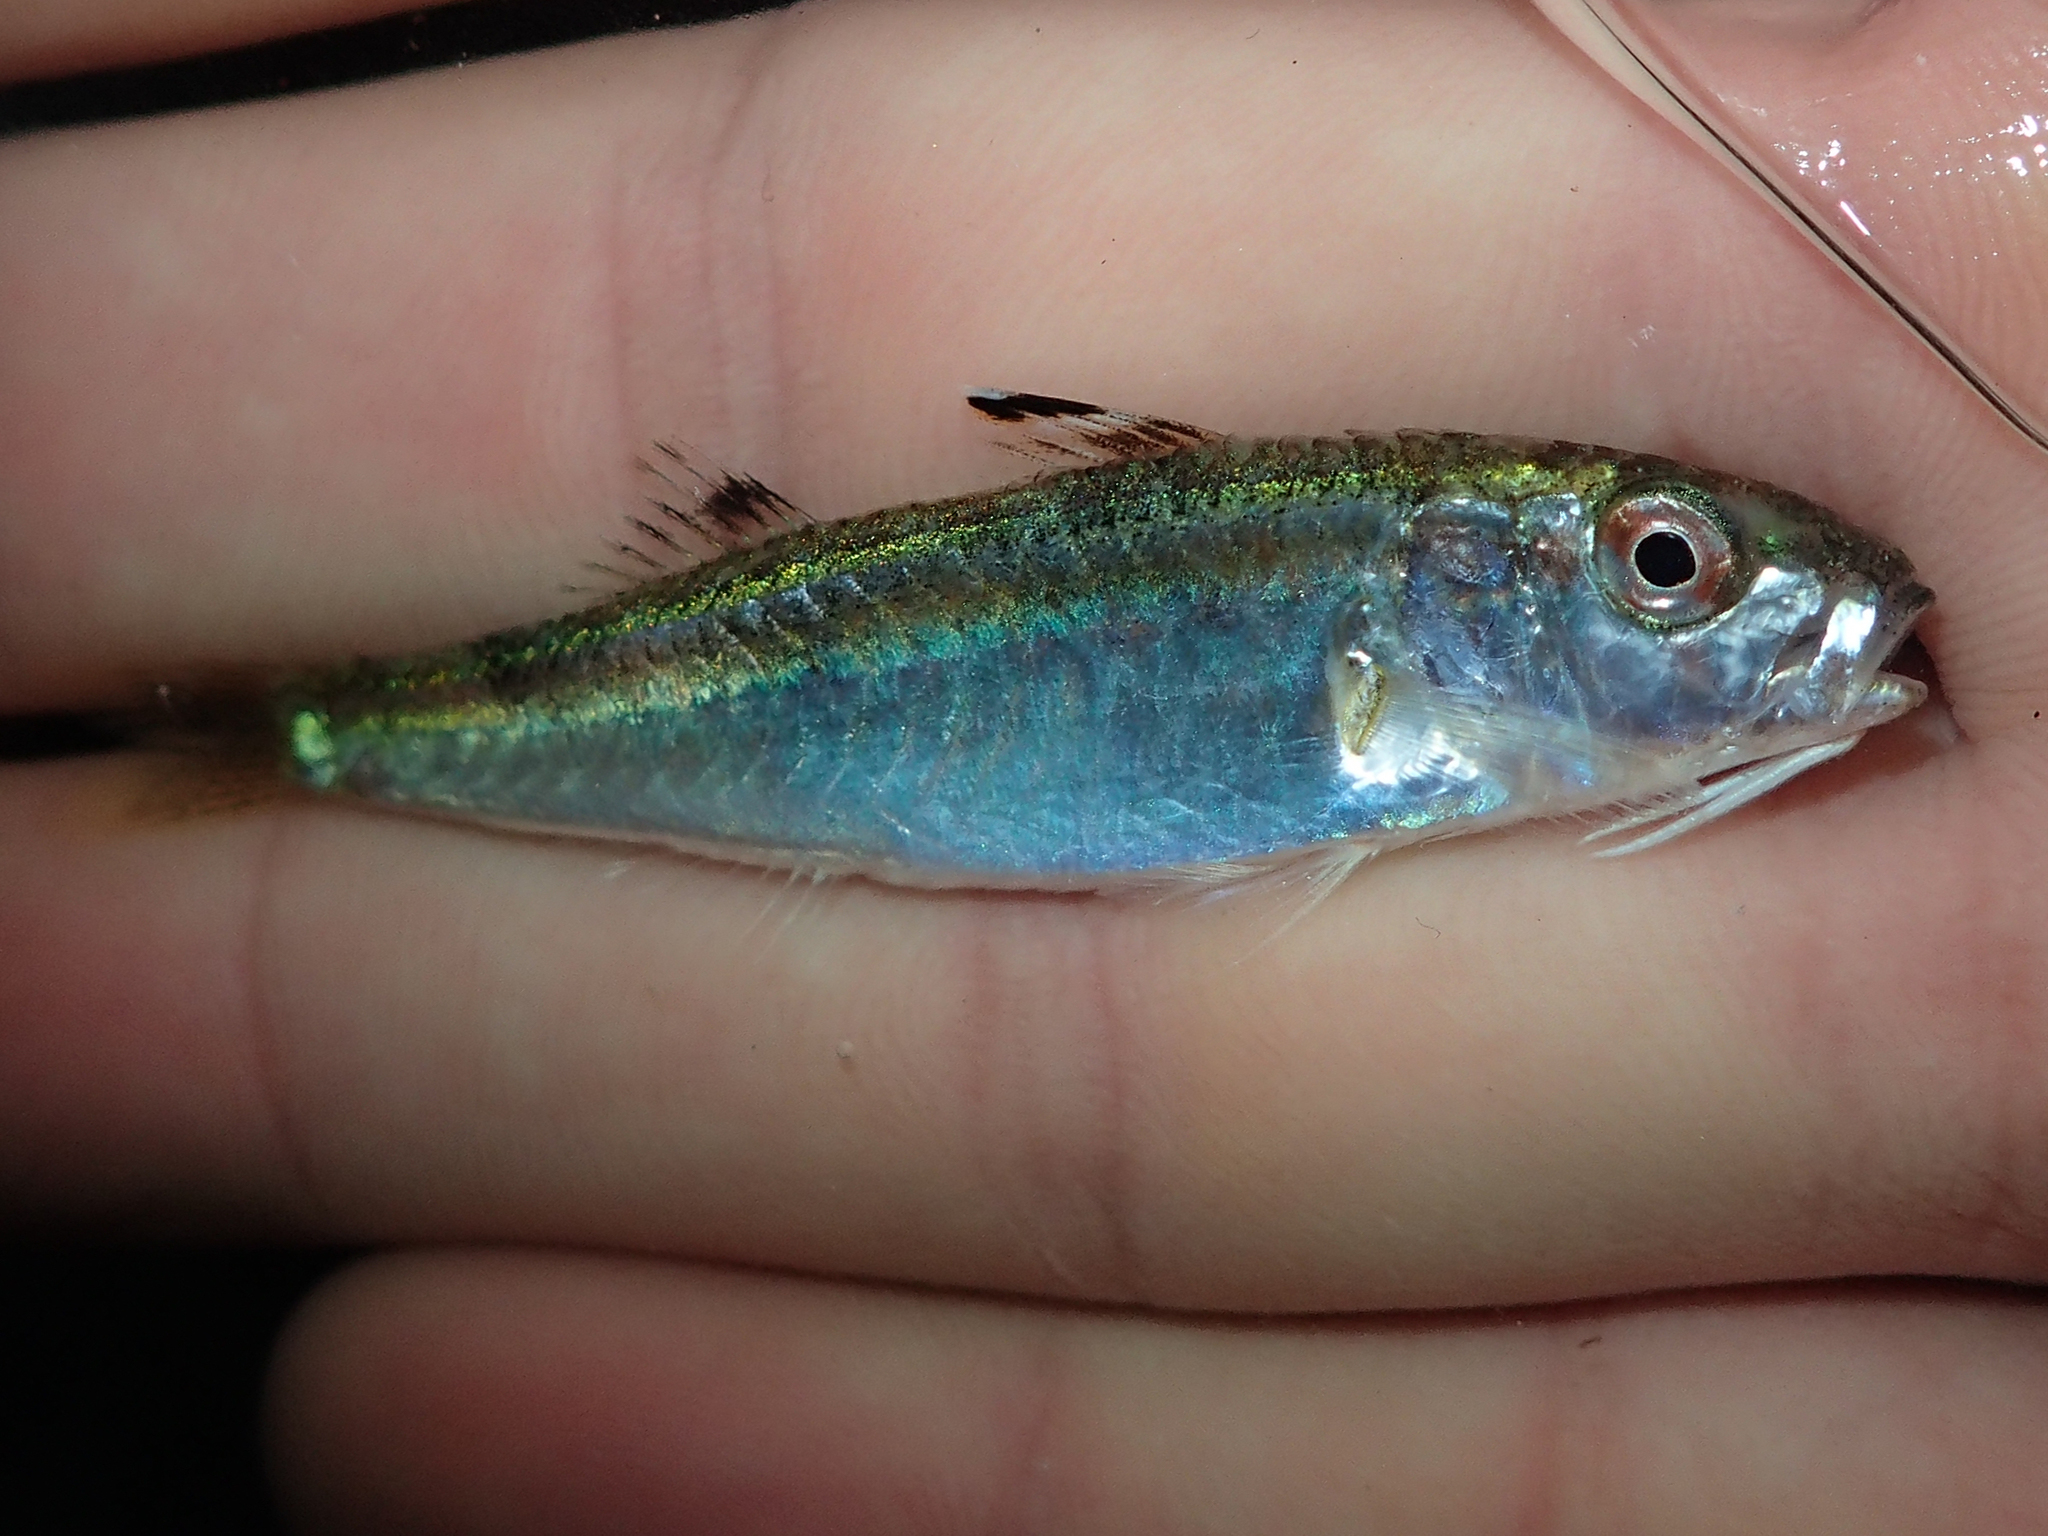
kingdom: Animalia
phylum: Chordata
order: Perciformes
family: Mullidae
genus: Mullus
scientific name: Mullus surmuletus
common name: Red mullet
